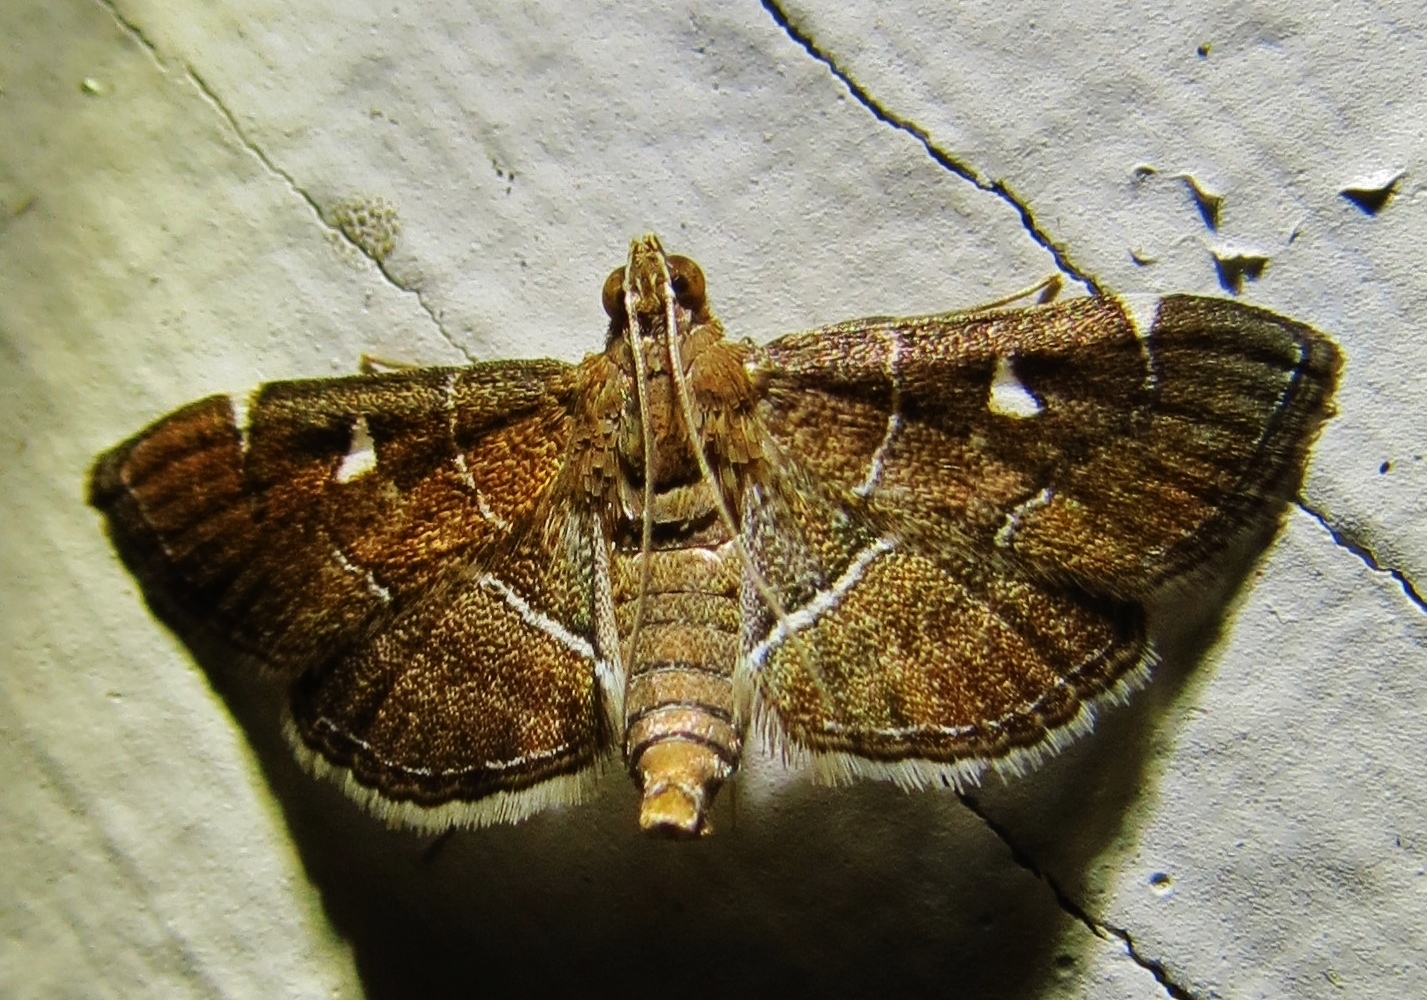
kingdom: Animalia
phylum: Arthropoda
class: Insecta
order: Lepidoptera
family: Crambidae
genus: Lamprosema
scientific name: Lamprosema victoriae
